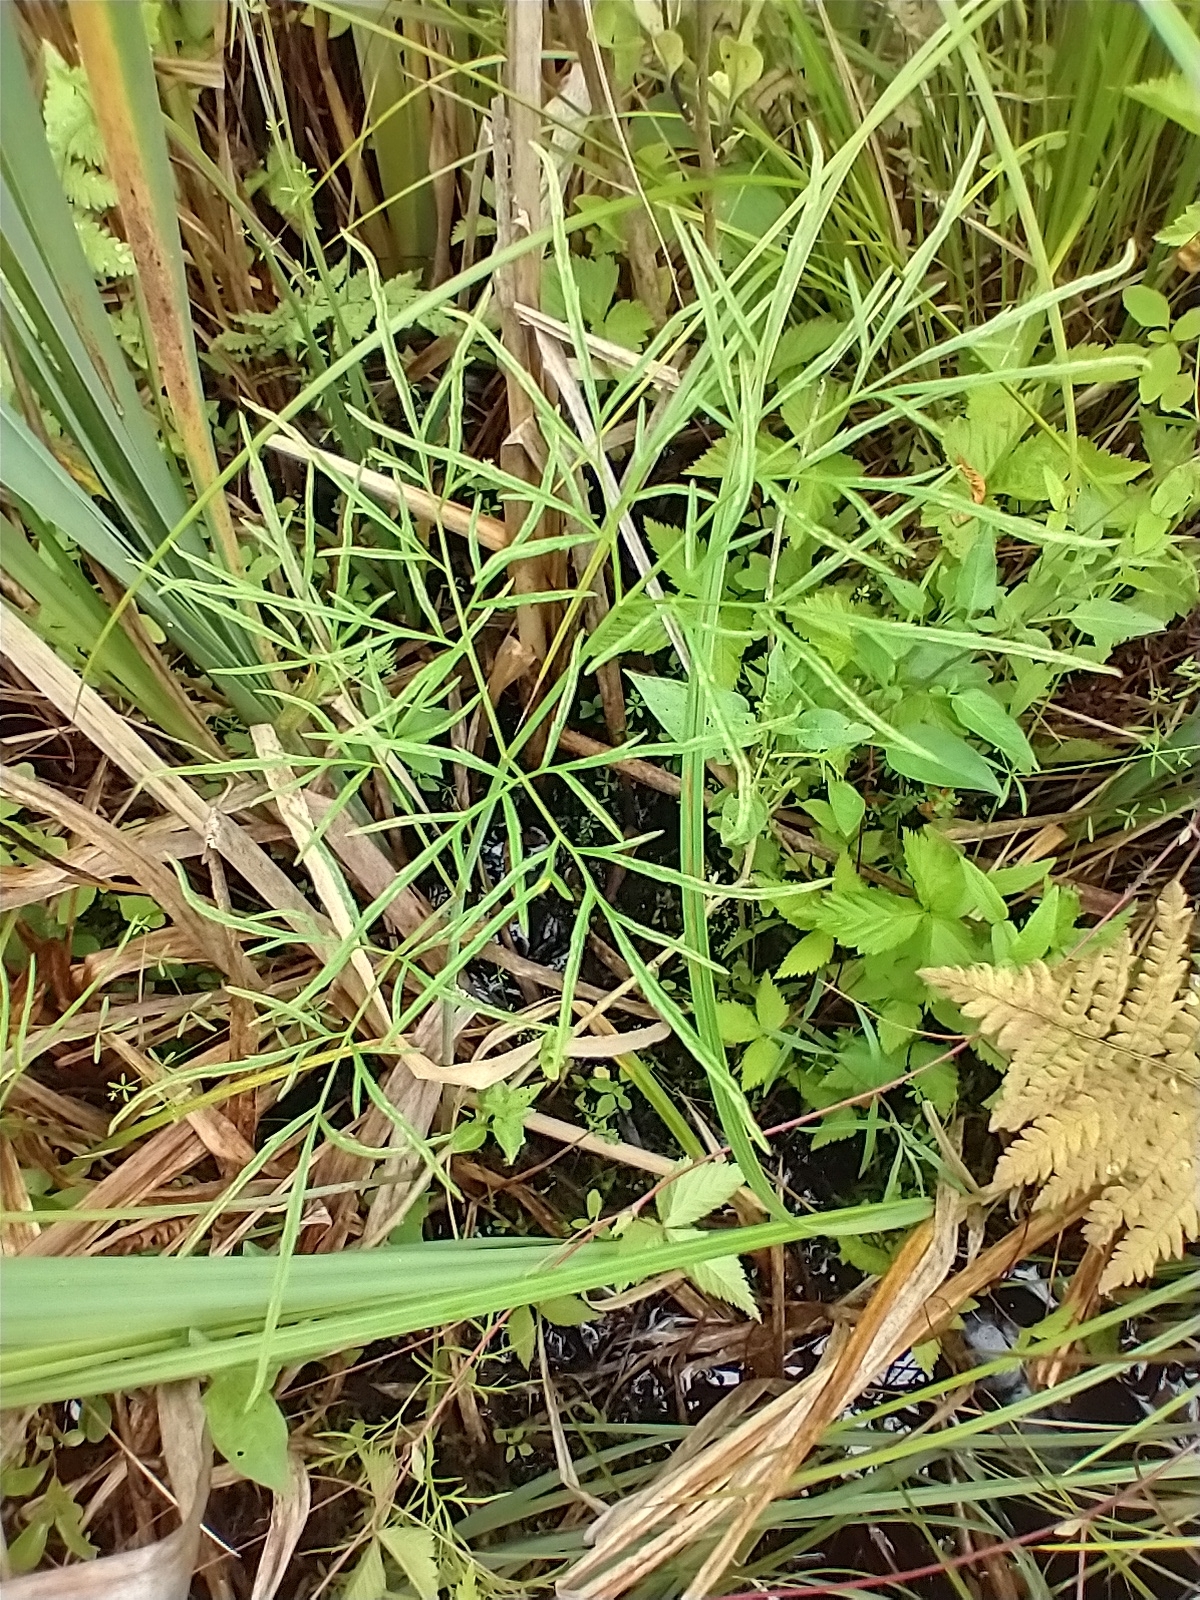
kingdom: Plantae
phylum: Tracheophyta
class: Magnoliopsida
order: Apiales
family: Apiaceae
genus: Cicuta
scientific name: Cicuta bulbifera
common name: Bulb-bearing water-hemlock
